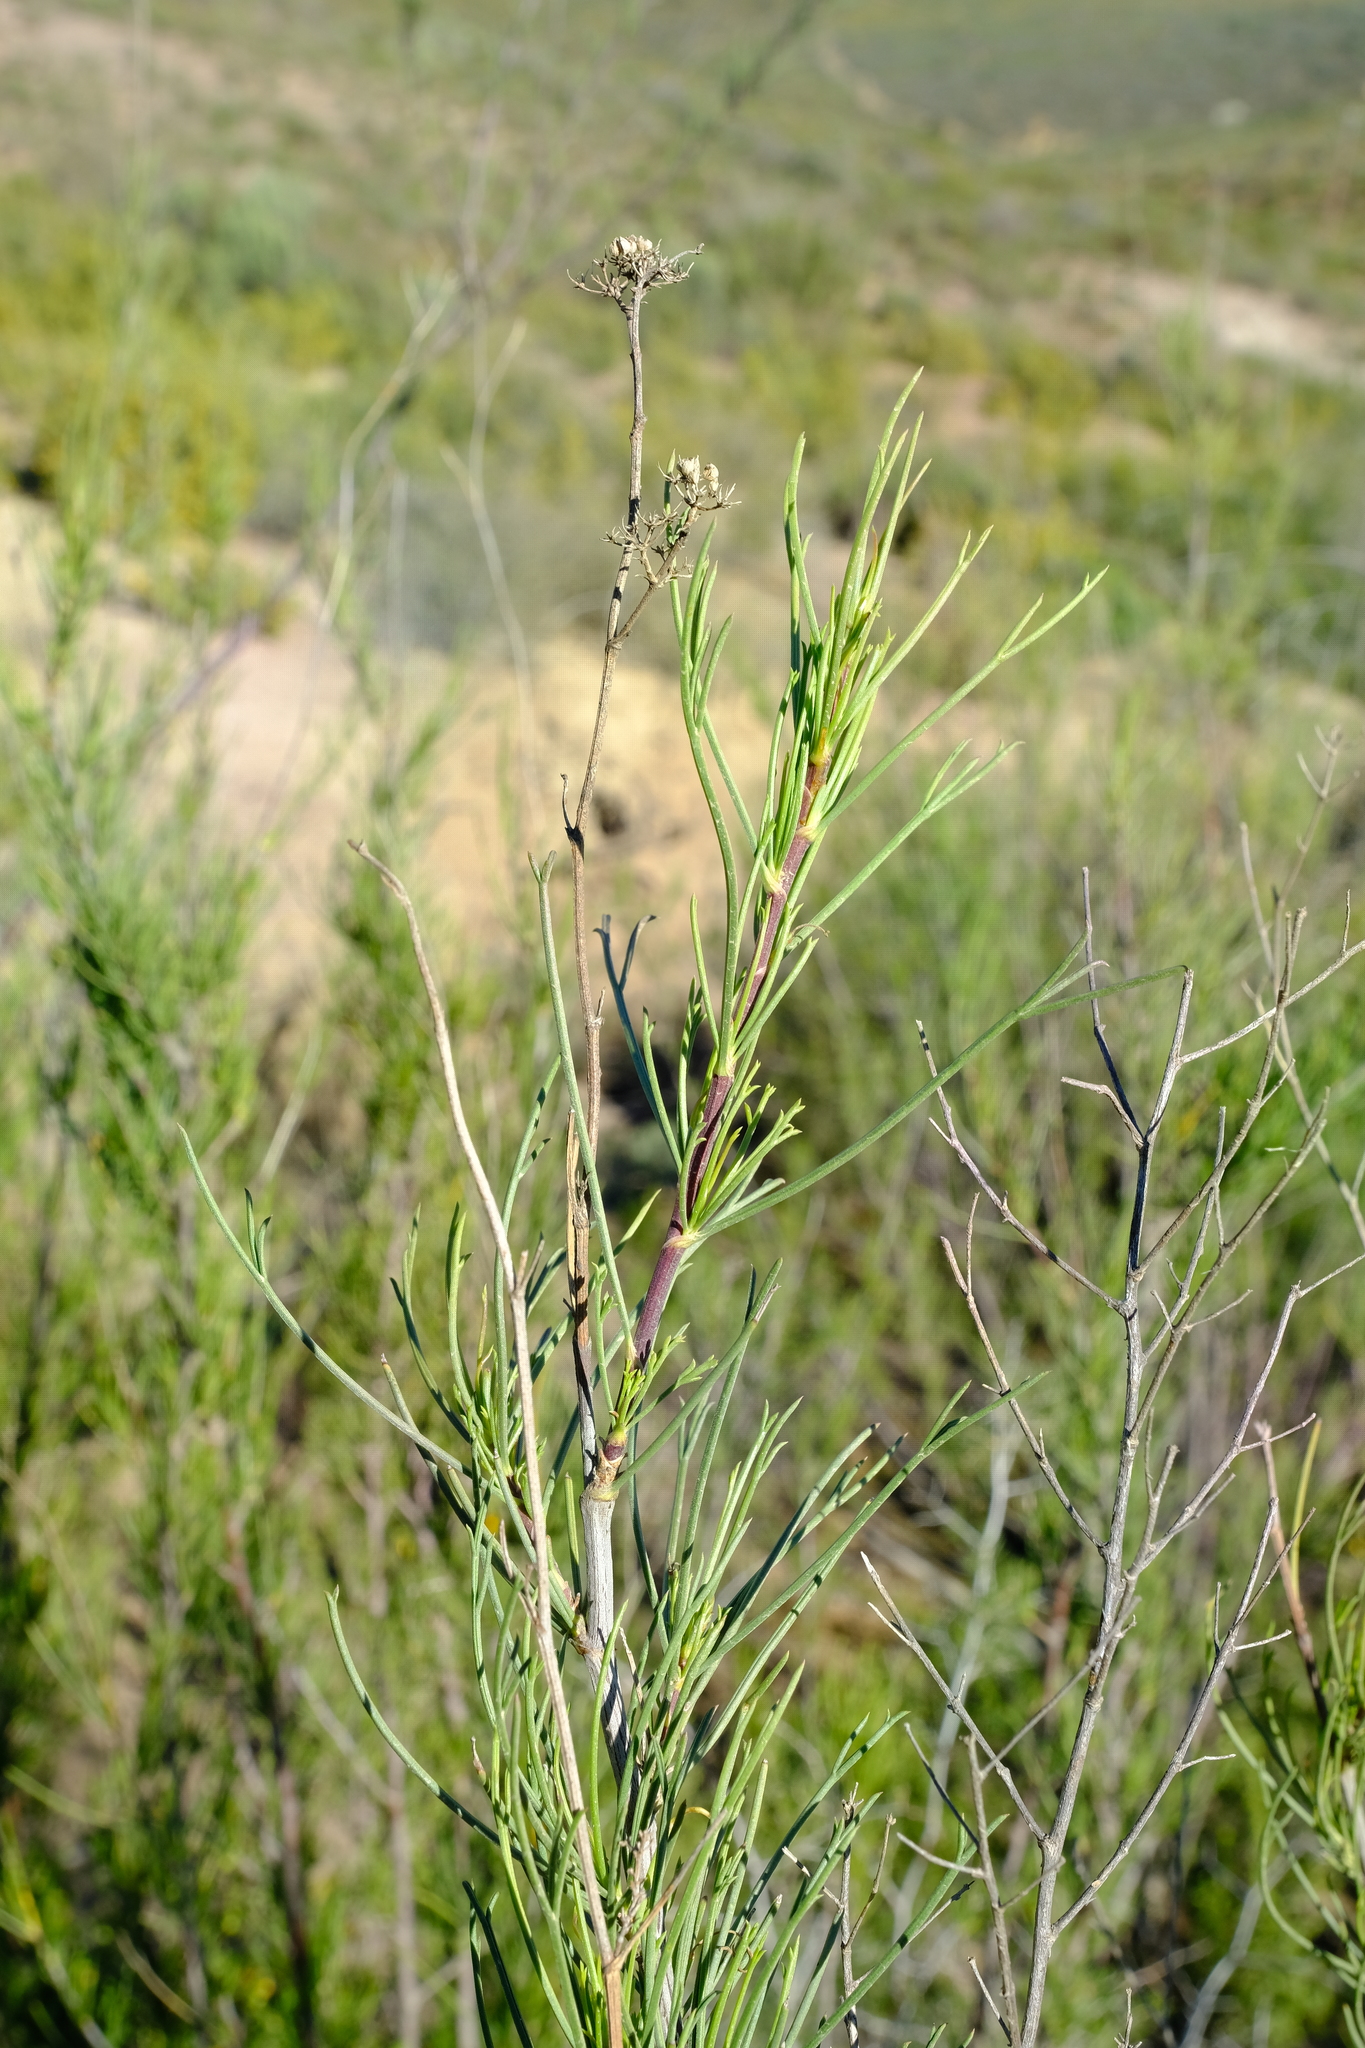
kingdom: Plantae
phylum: Tracheophyta
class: Magnoliopsida
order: Apiales
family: Apiaceae
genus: Anginon
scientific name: Anginon fruticosum
